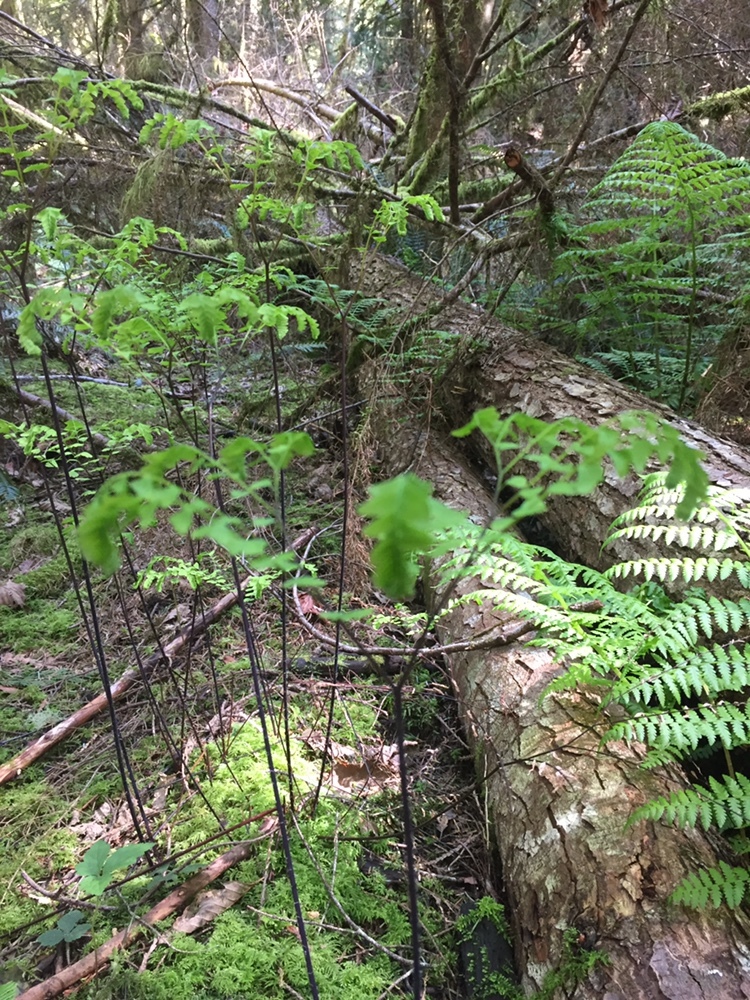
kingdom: Plantae
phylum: Tracheophyta
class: Polypodiopsida
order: Polypodiales
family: Pteridaceae
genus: Adiantum
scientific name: Adiantum aleuticum
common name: Aleutian maidenhair fern
